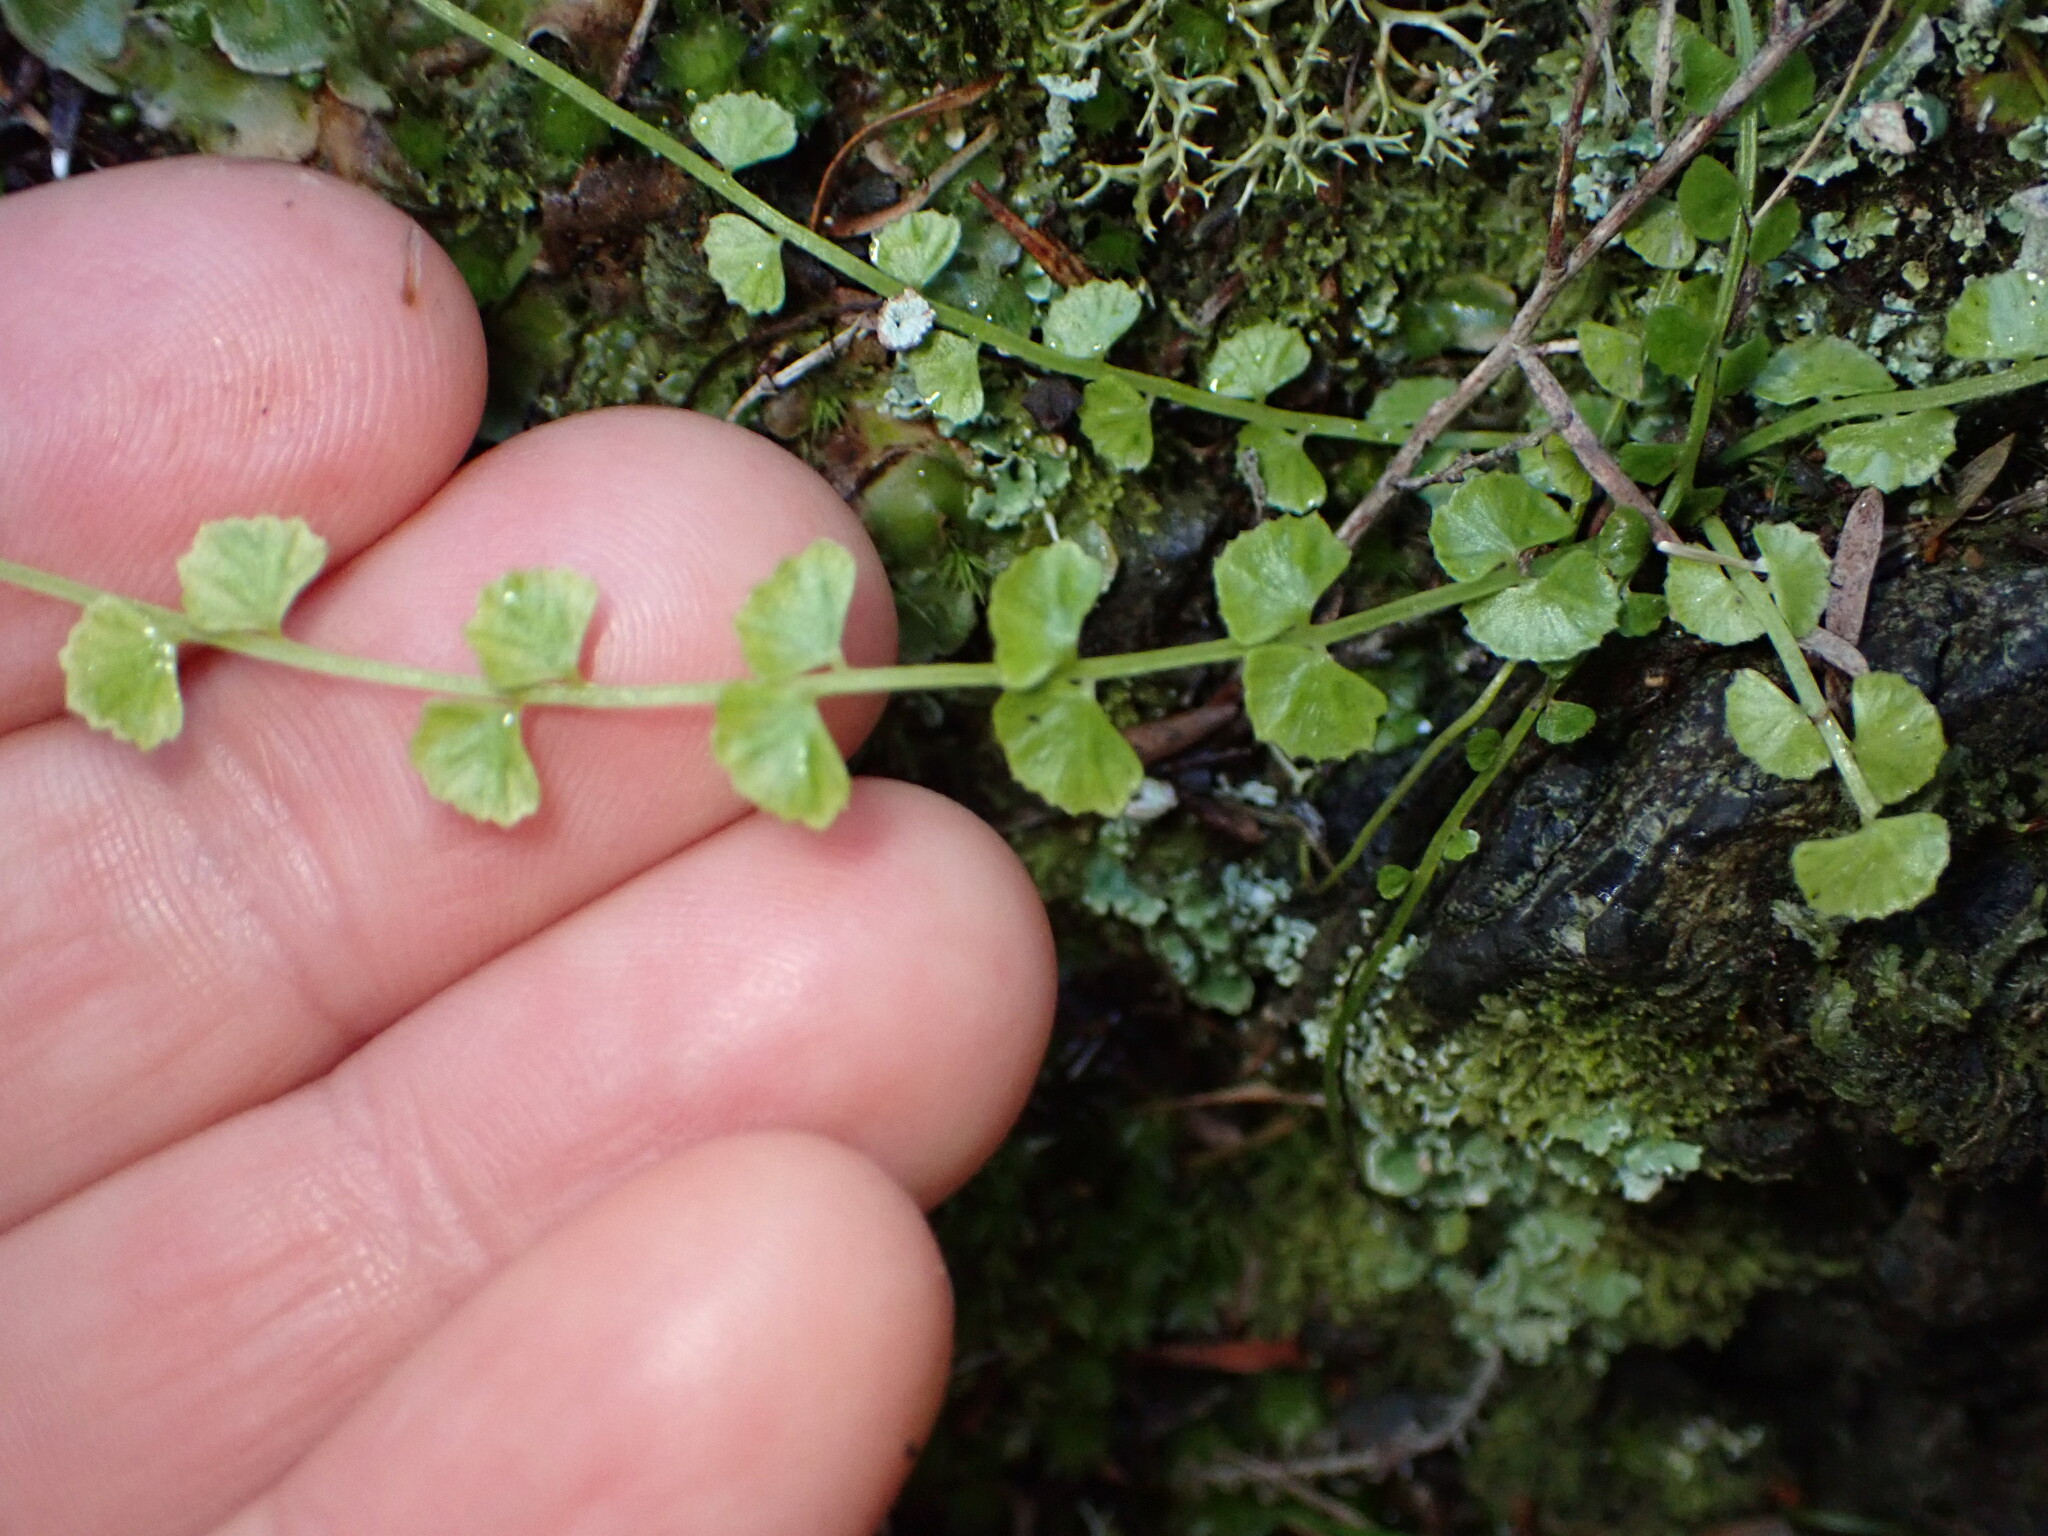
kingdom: Plantae
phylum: Tracheophyta
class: Polypodiopsida
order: Polypodiales
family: Aspleniaceae
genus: Asplenium
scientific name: Asplenium flabellifolium
